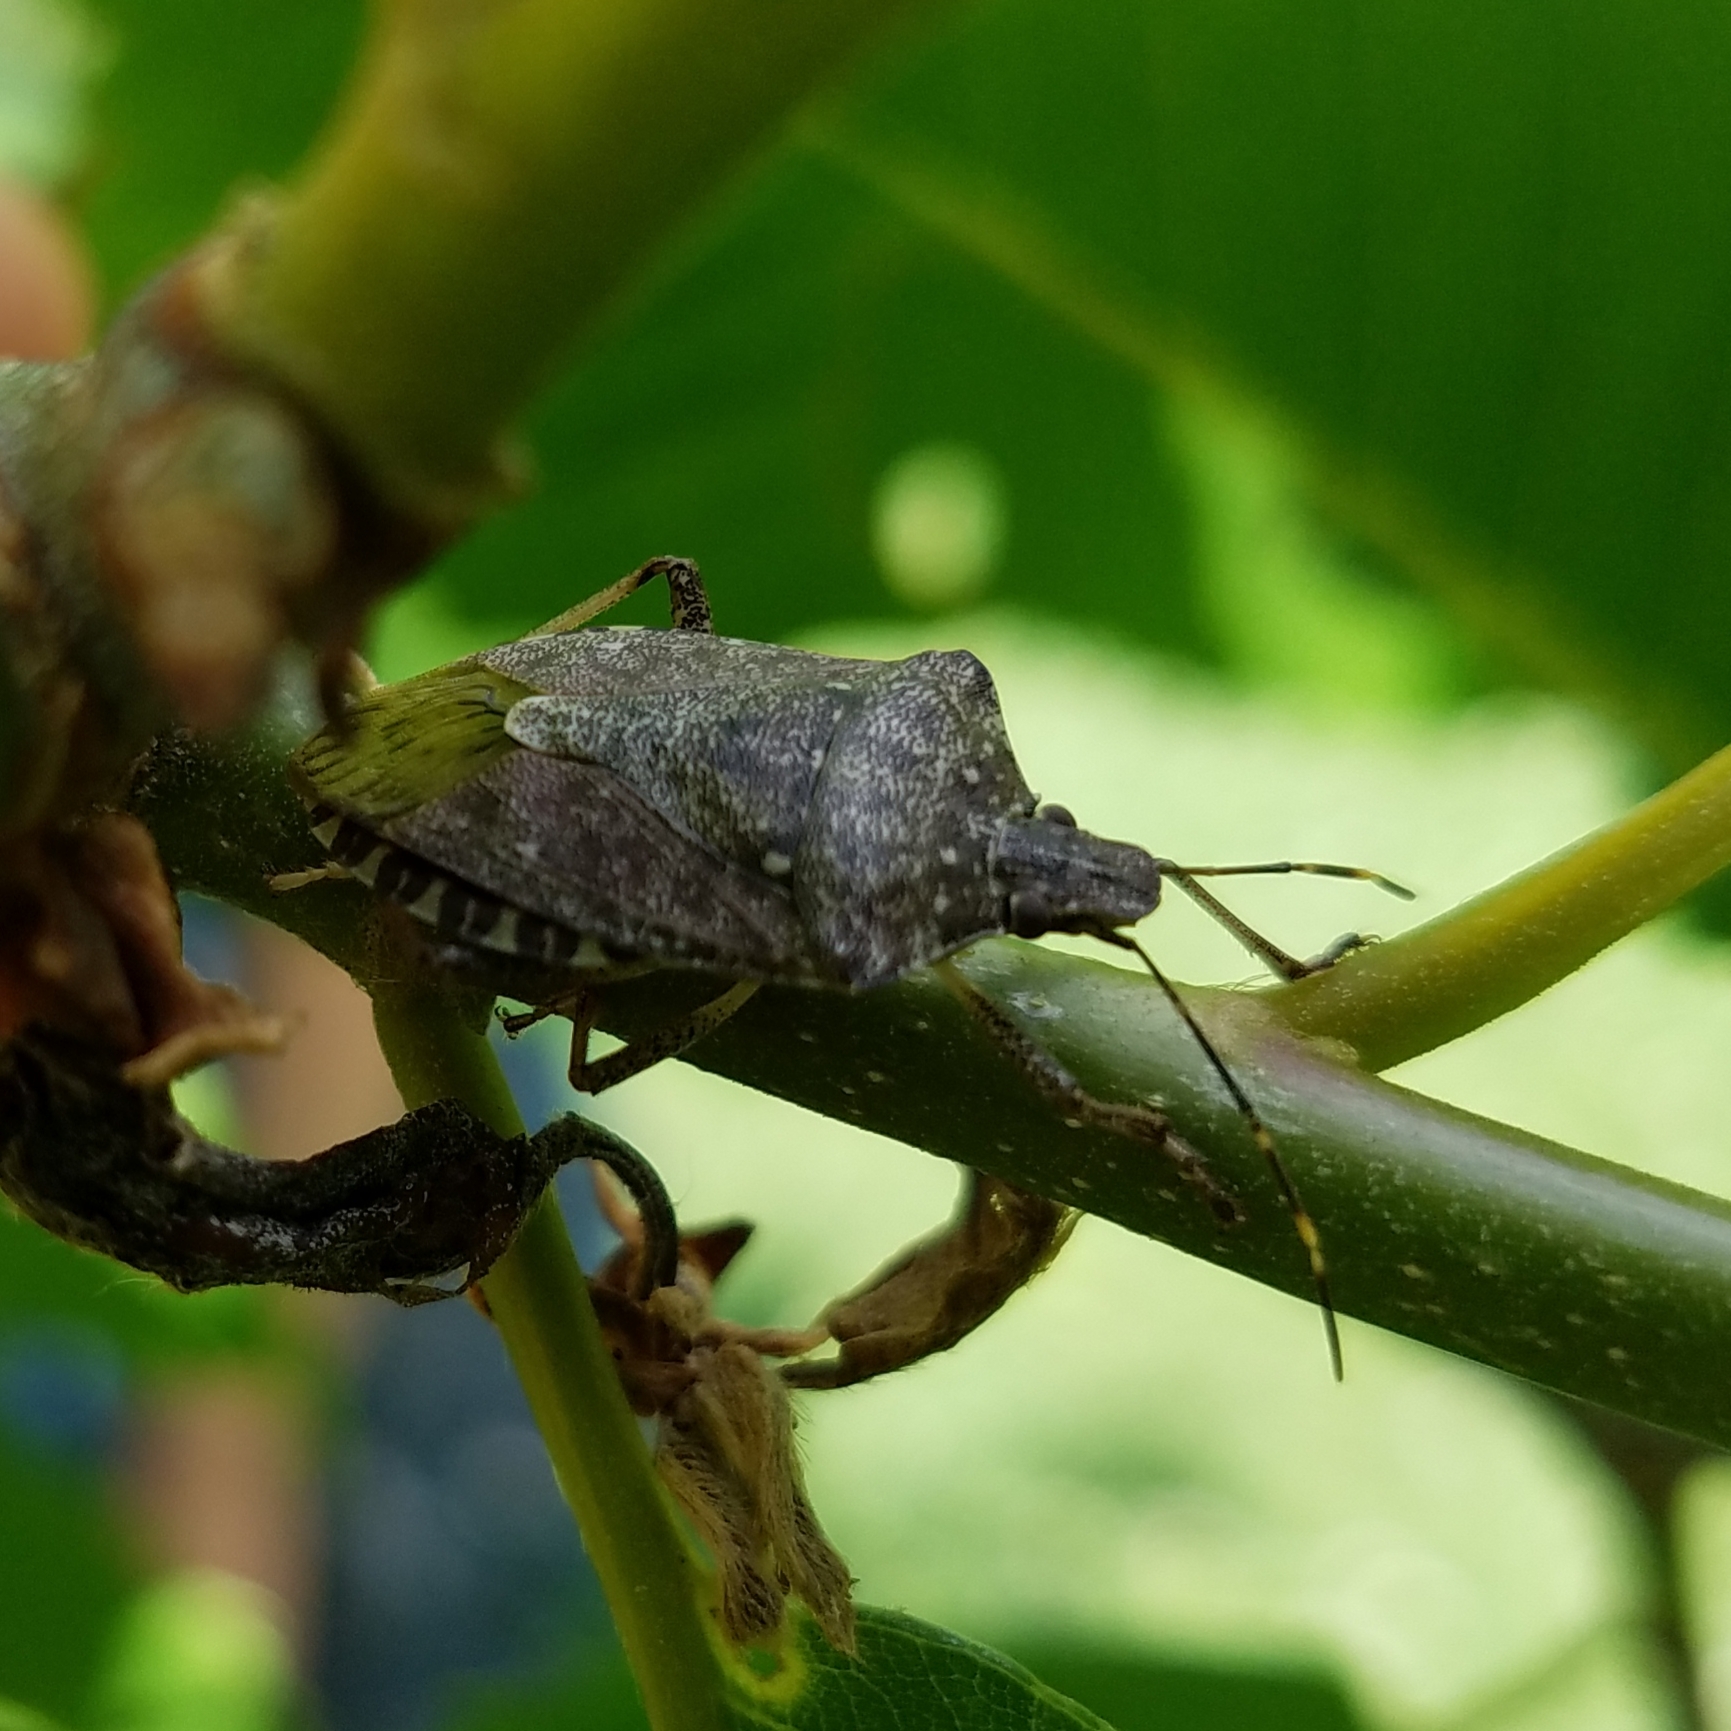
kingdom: Animalia
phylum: Arthropoda
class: Insecta
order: Hemiptera
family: Pentatomidae
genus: Halyomorpha
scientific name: Halyomorpha halys
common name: Brown marmorated stink bug
